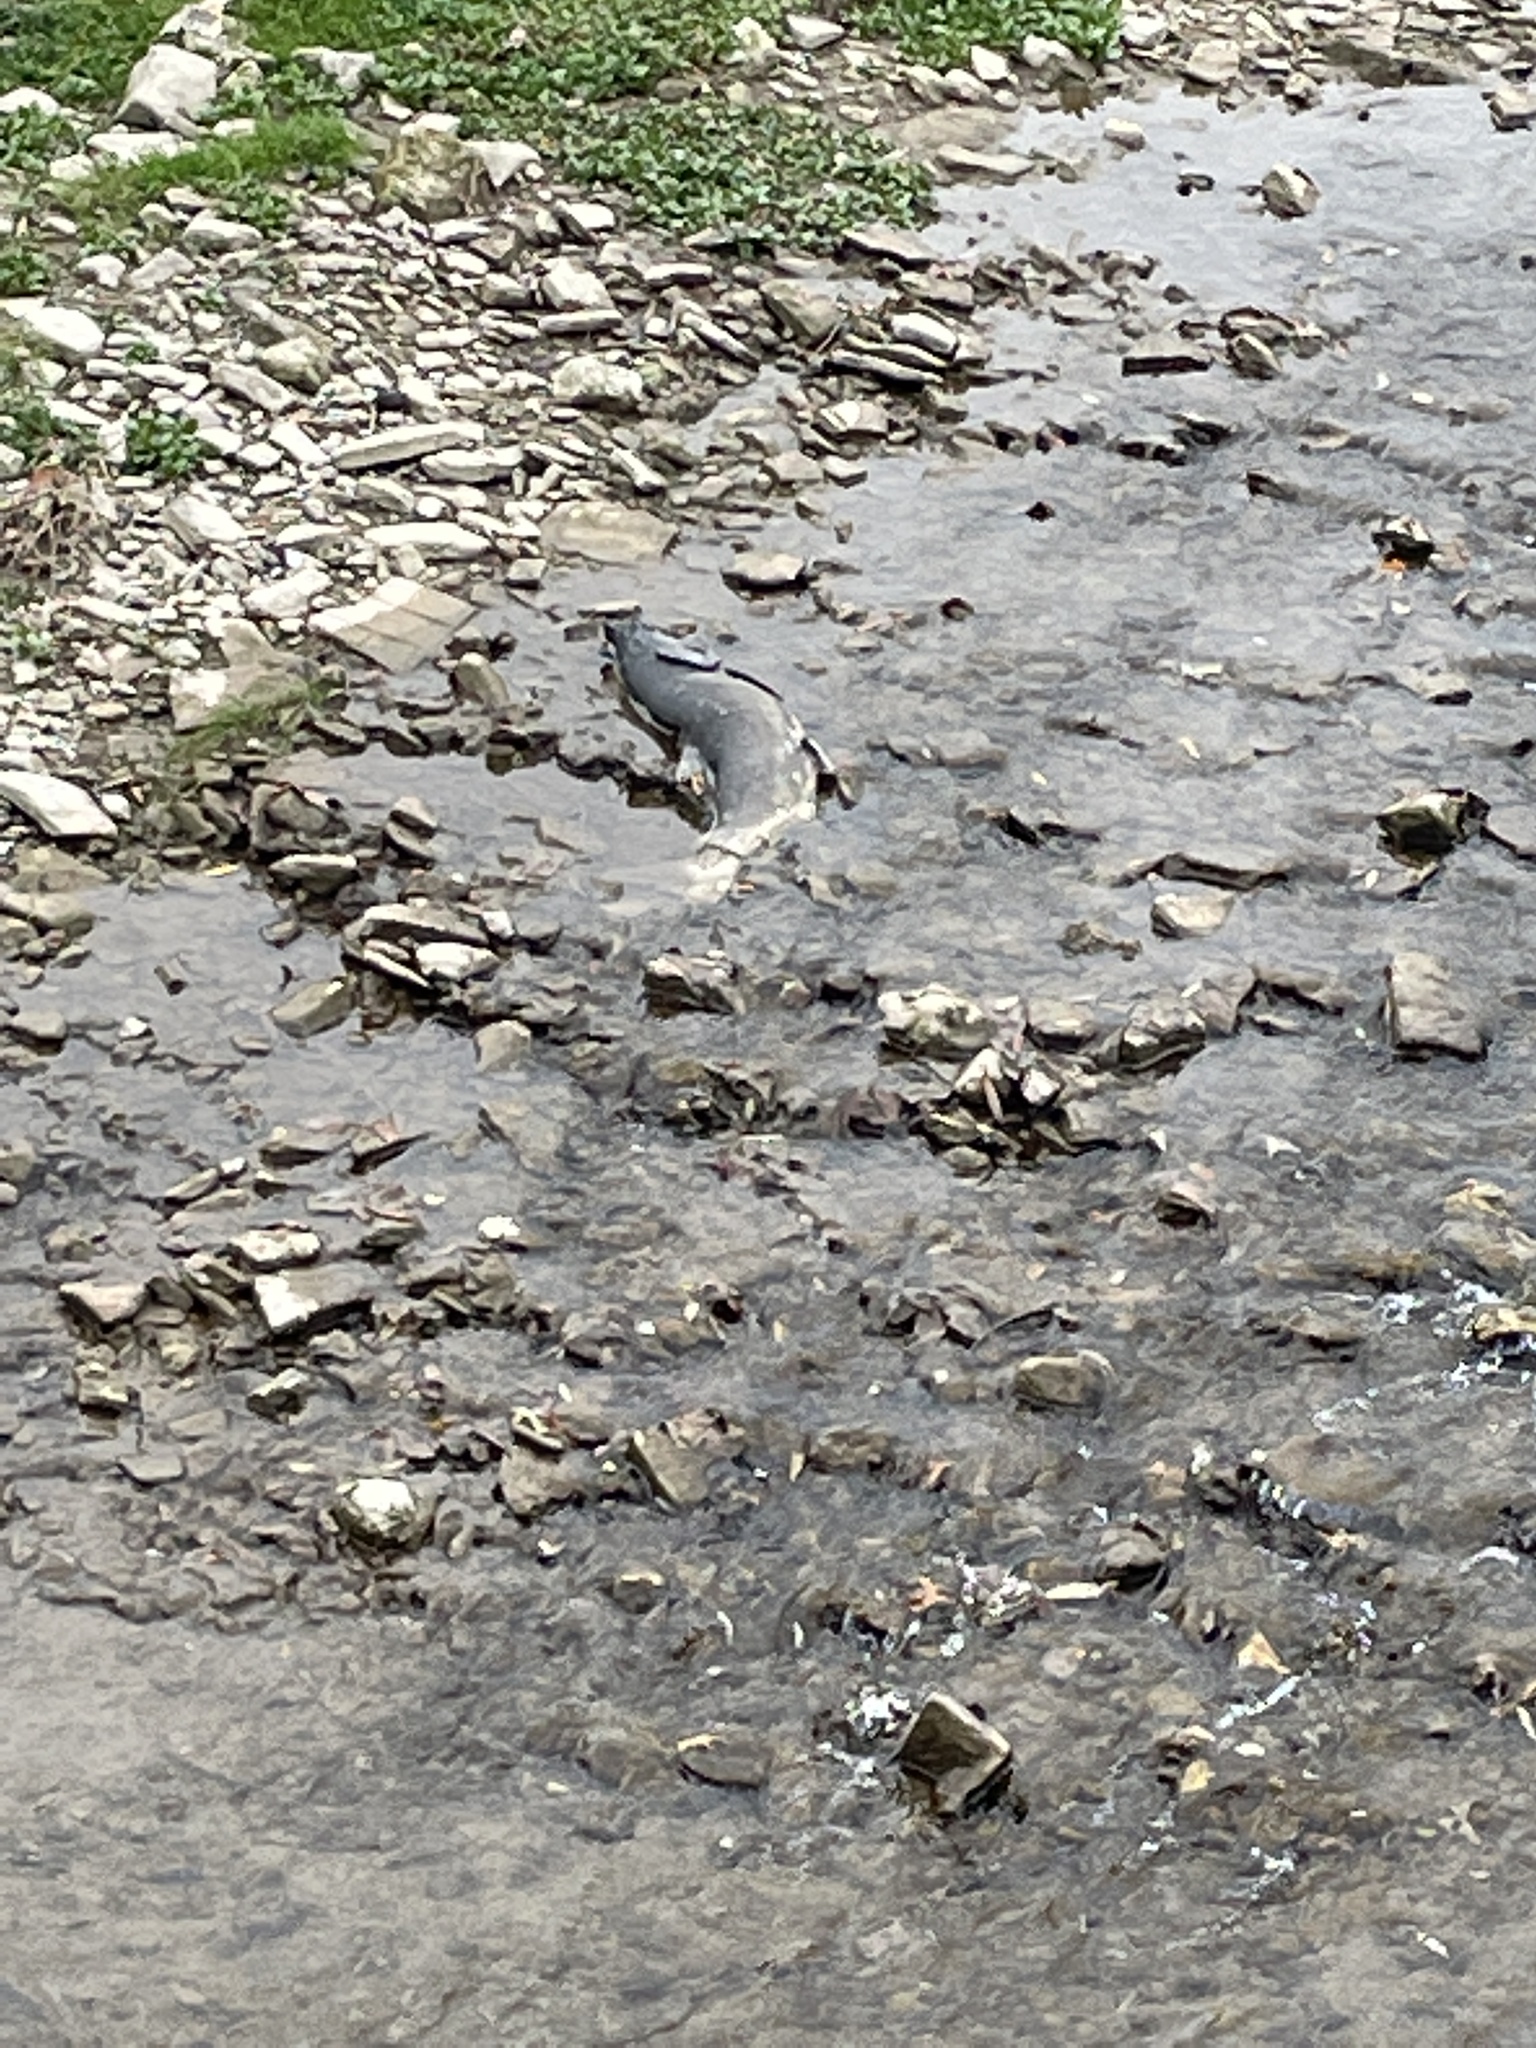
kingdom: Animalia
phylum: Chordata
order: Salmoniformes
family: Salmonidae
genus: Oncorhynchus
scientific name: Oncorhynchus tshawytscha
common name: Chinook salmon
